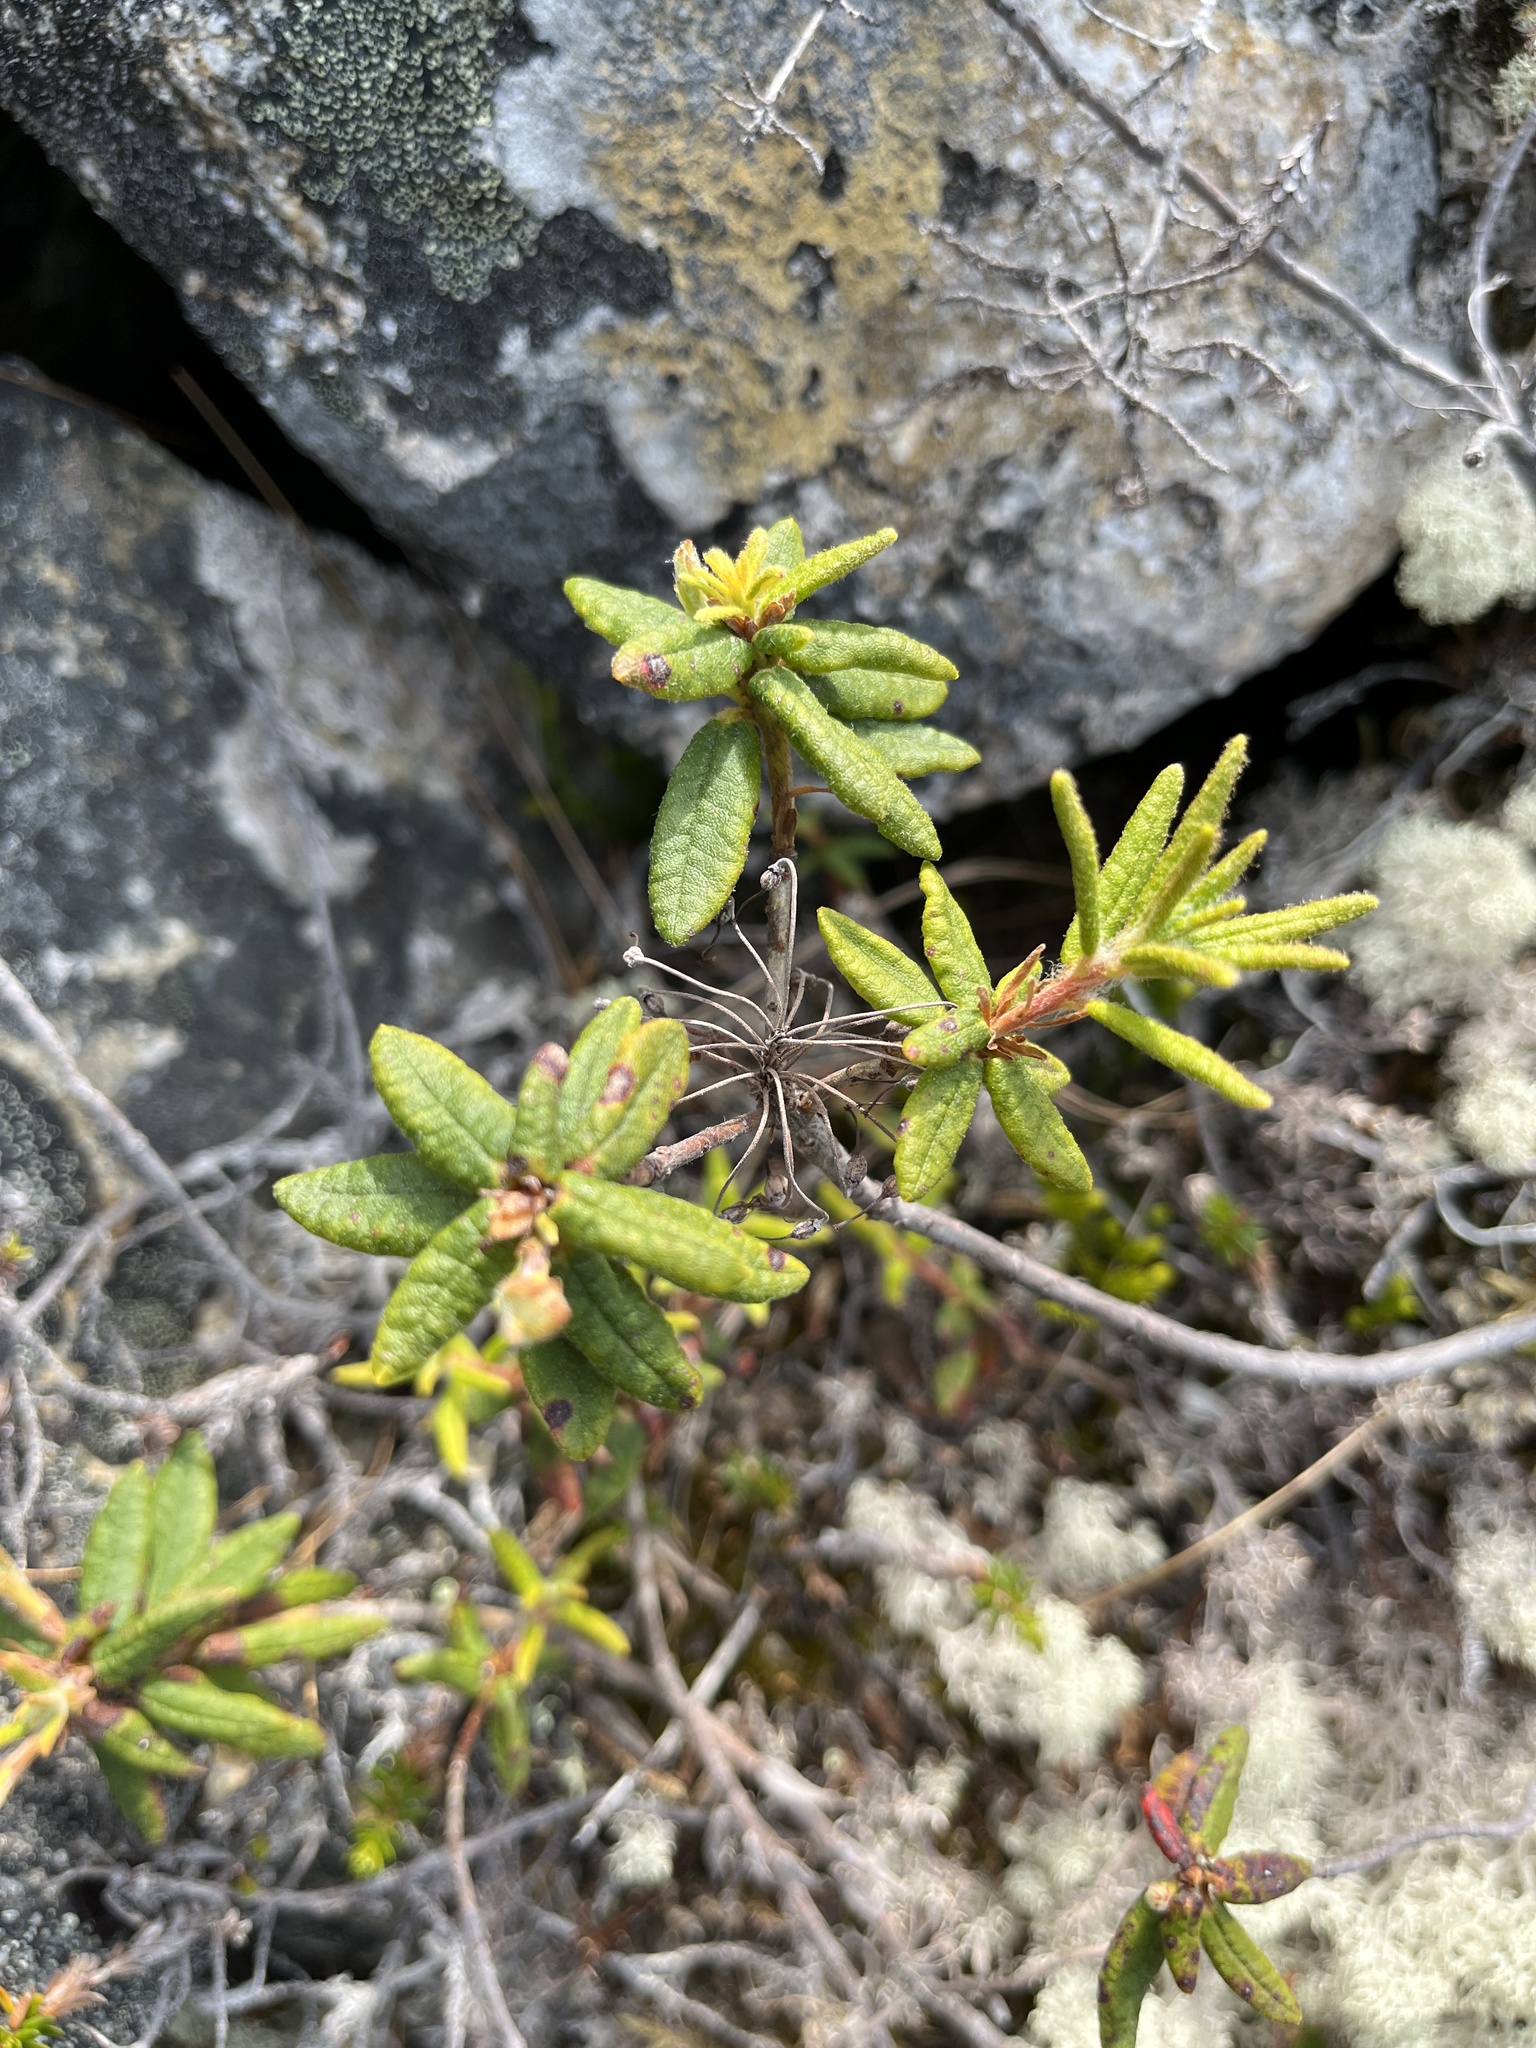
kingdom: Plantae
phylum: Tracheophyta
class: Magnoliopsida
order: Ericales
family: Ericaceae
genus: Rhododendron
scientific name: Rhododendron groenlandicum
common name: Bog labrador tea
